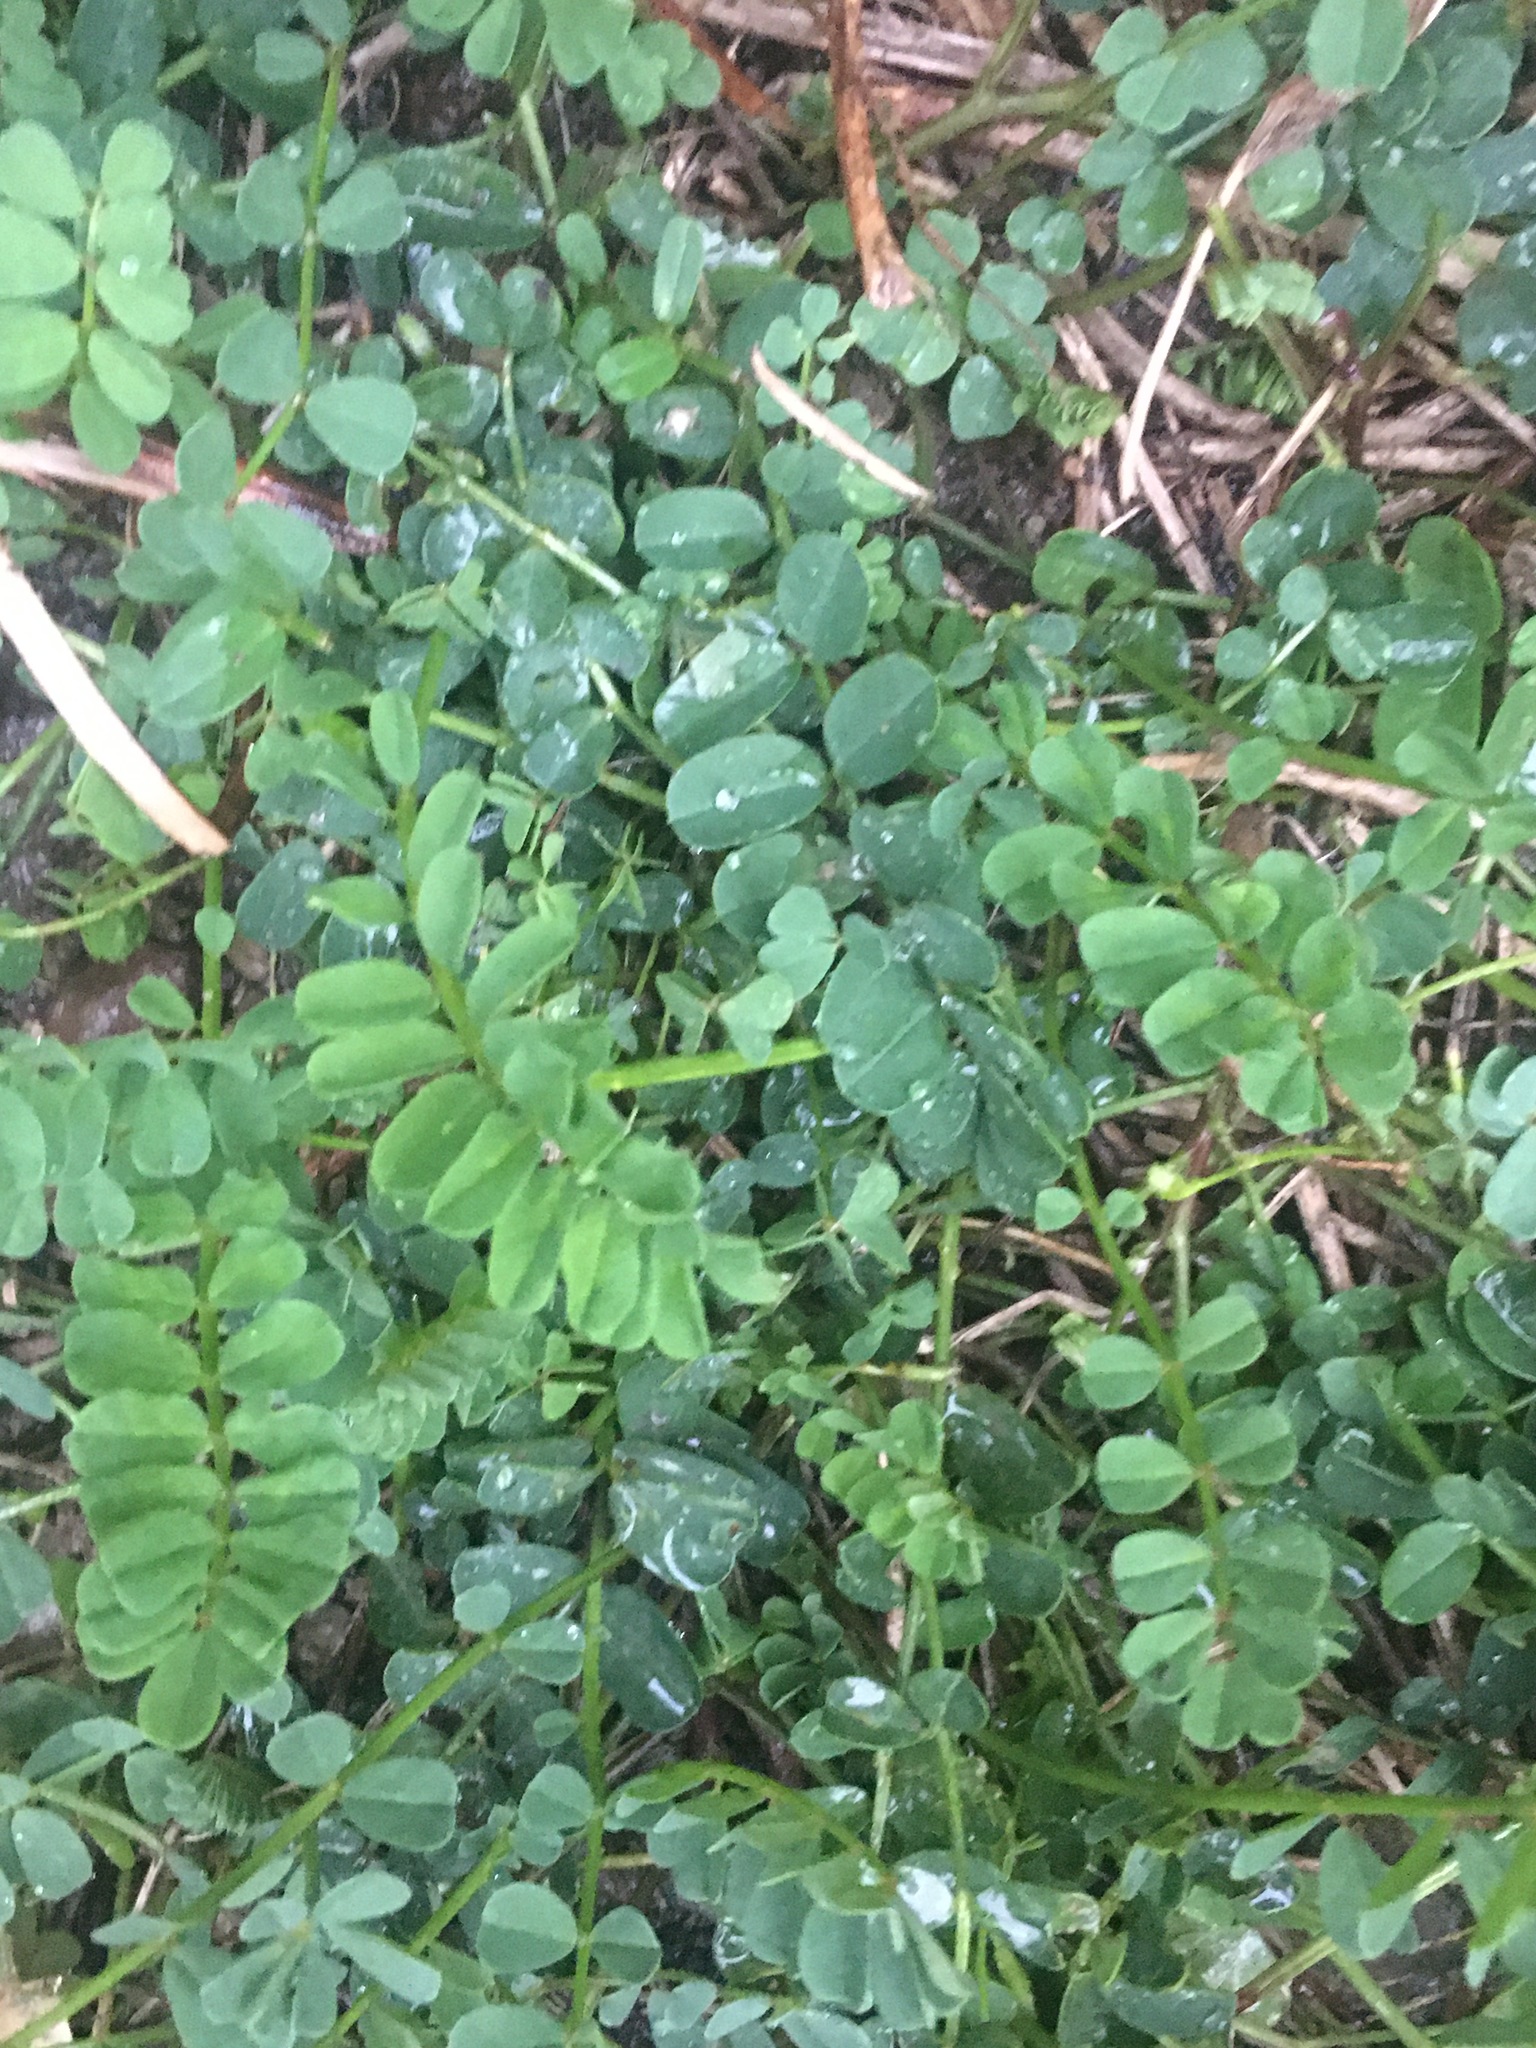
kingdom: Plantae
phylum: Tracheophyta
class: Magnoliopsida
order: Fabales
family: Fabaceae
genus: Coronilla
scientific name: Coronilla varia
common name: Crownvetch
